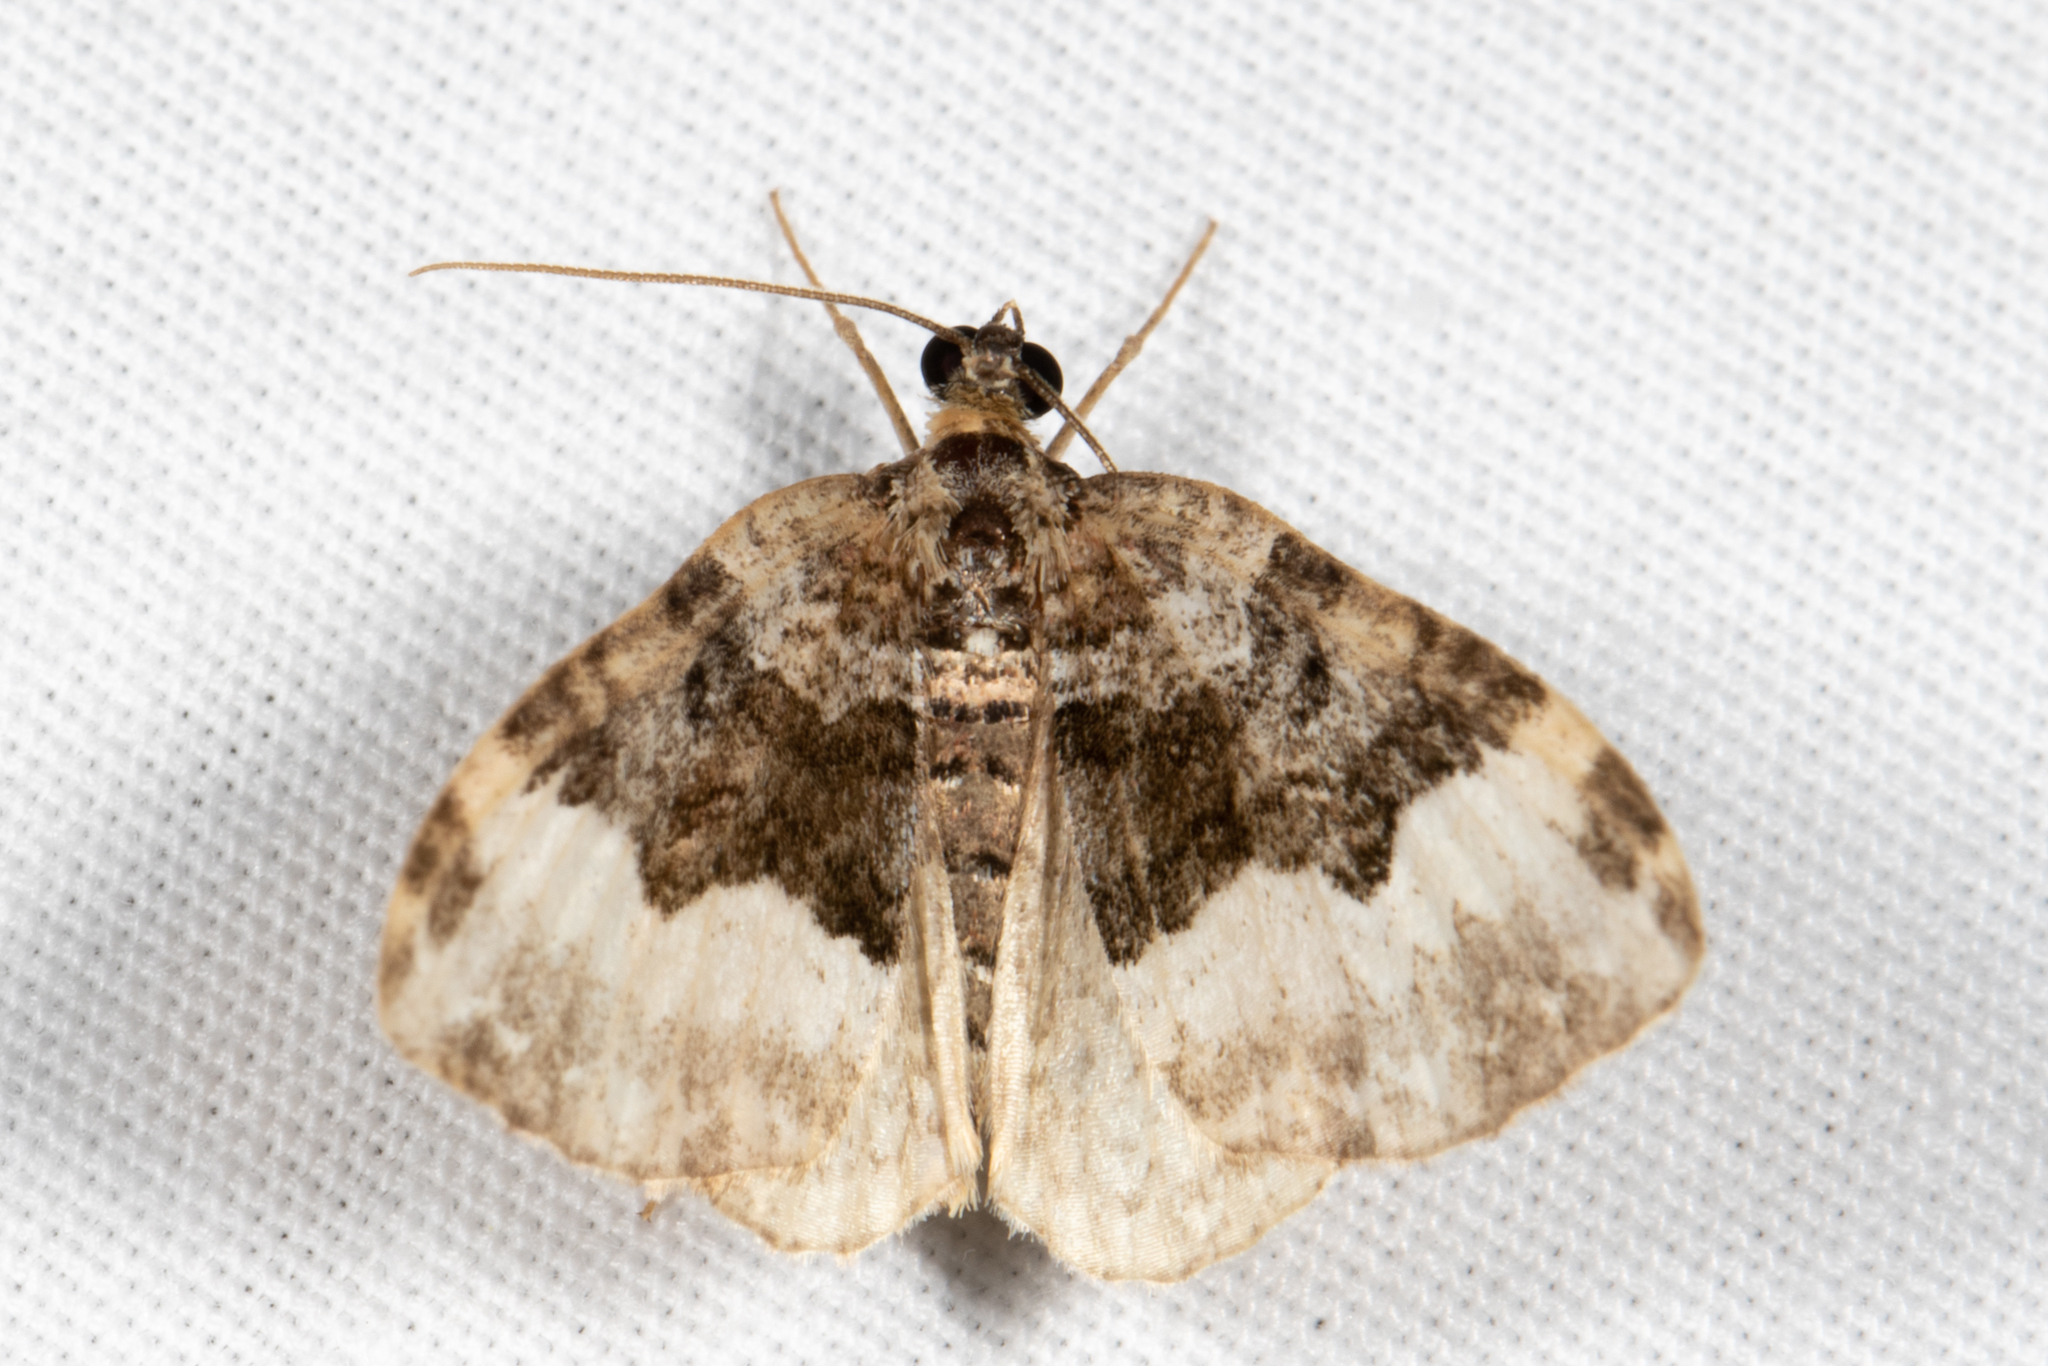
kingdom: Animalia
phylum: Arthropoda
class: Insecta
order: Lepidoptera
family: Geometridae
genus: Epirrhoe
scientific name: Epirrhoe alternata
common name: Common carpet
